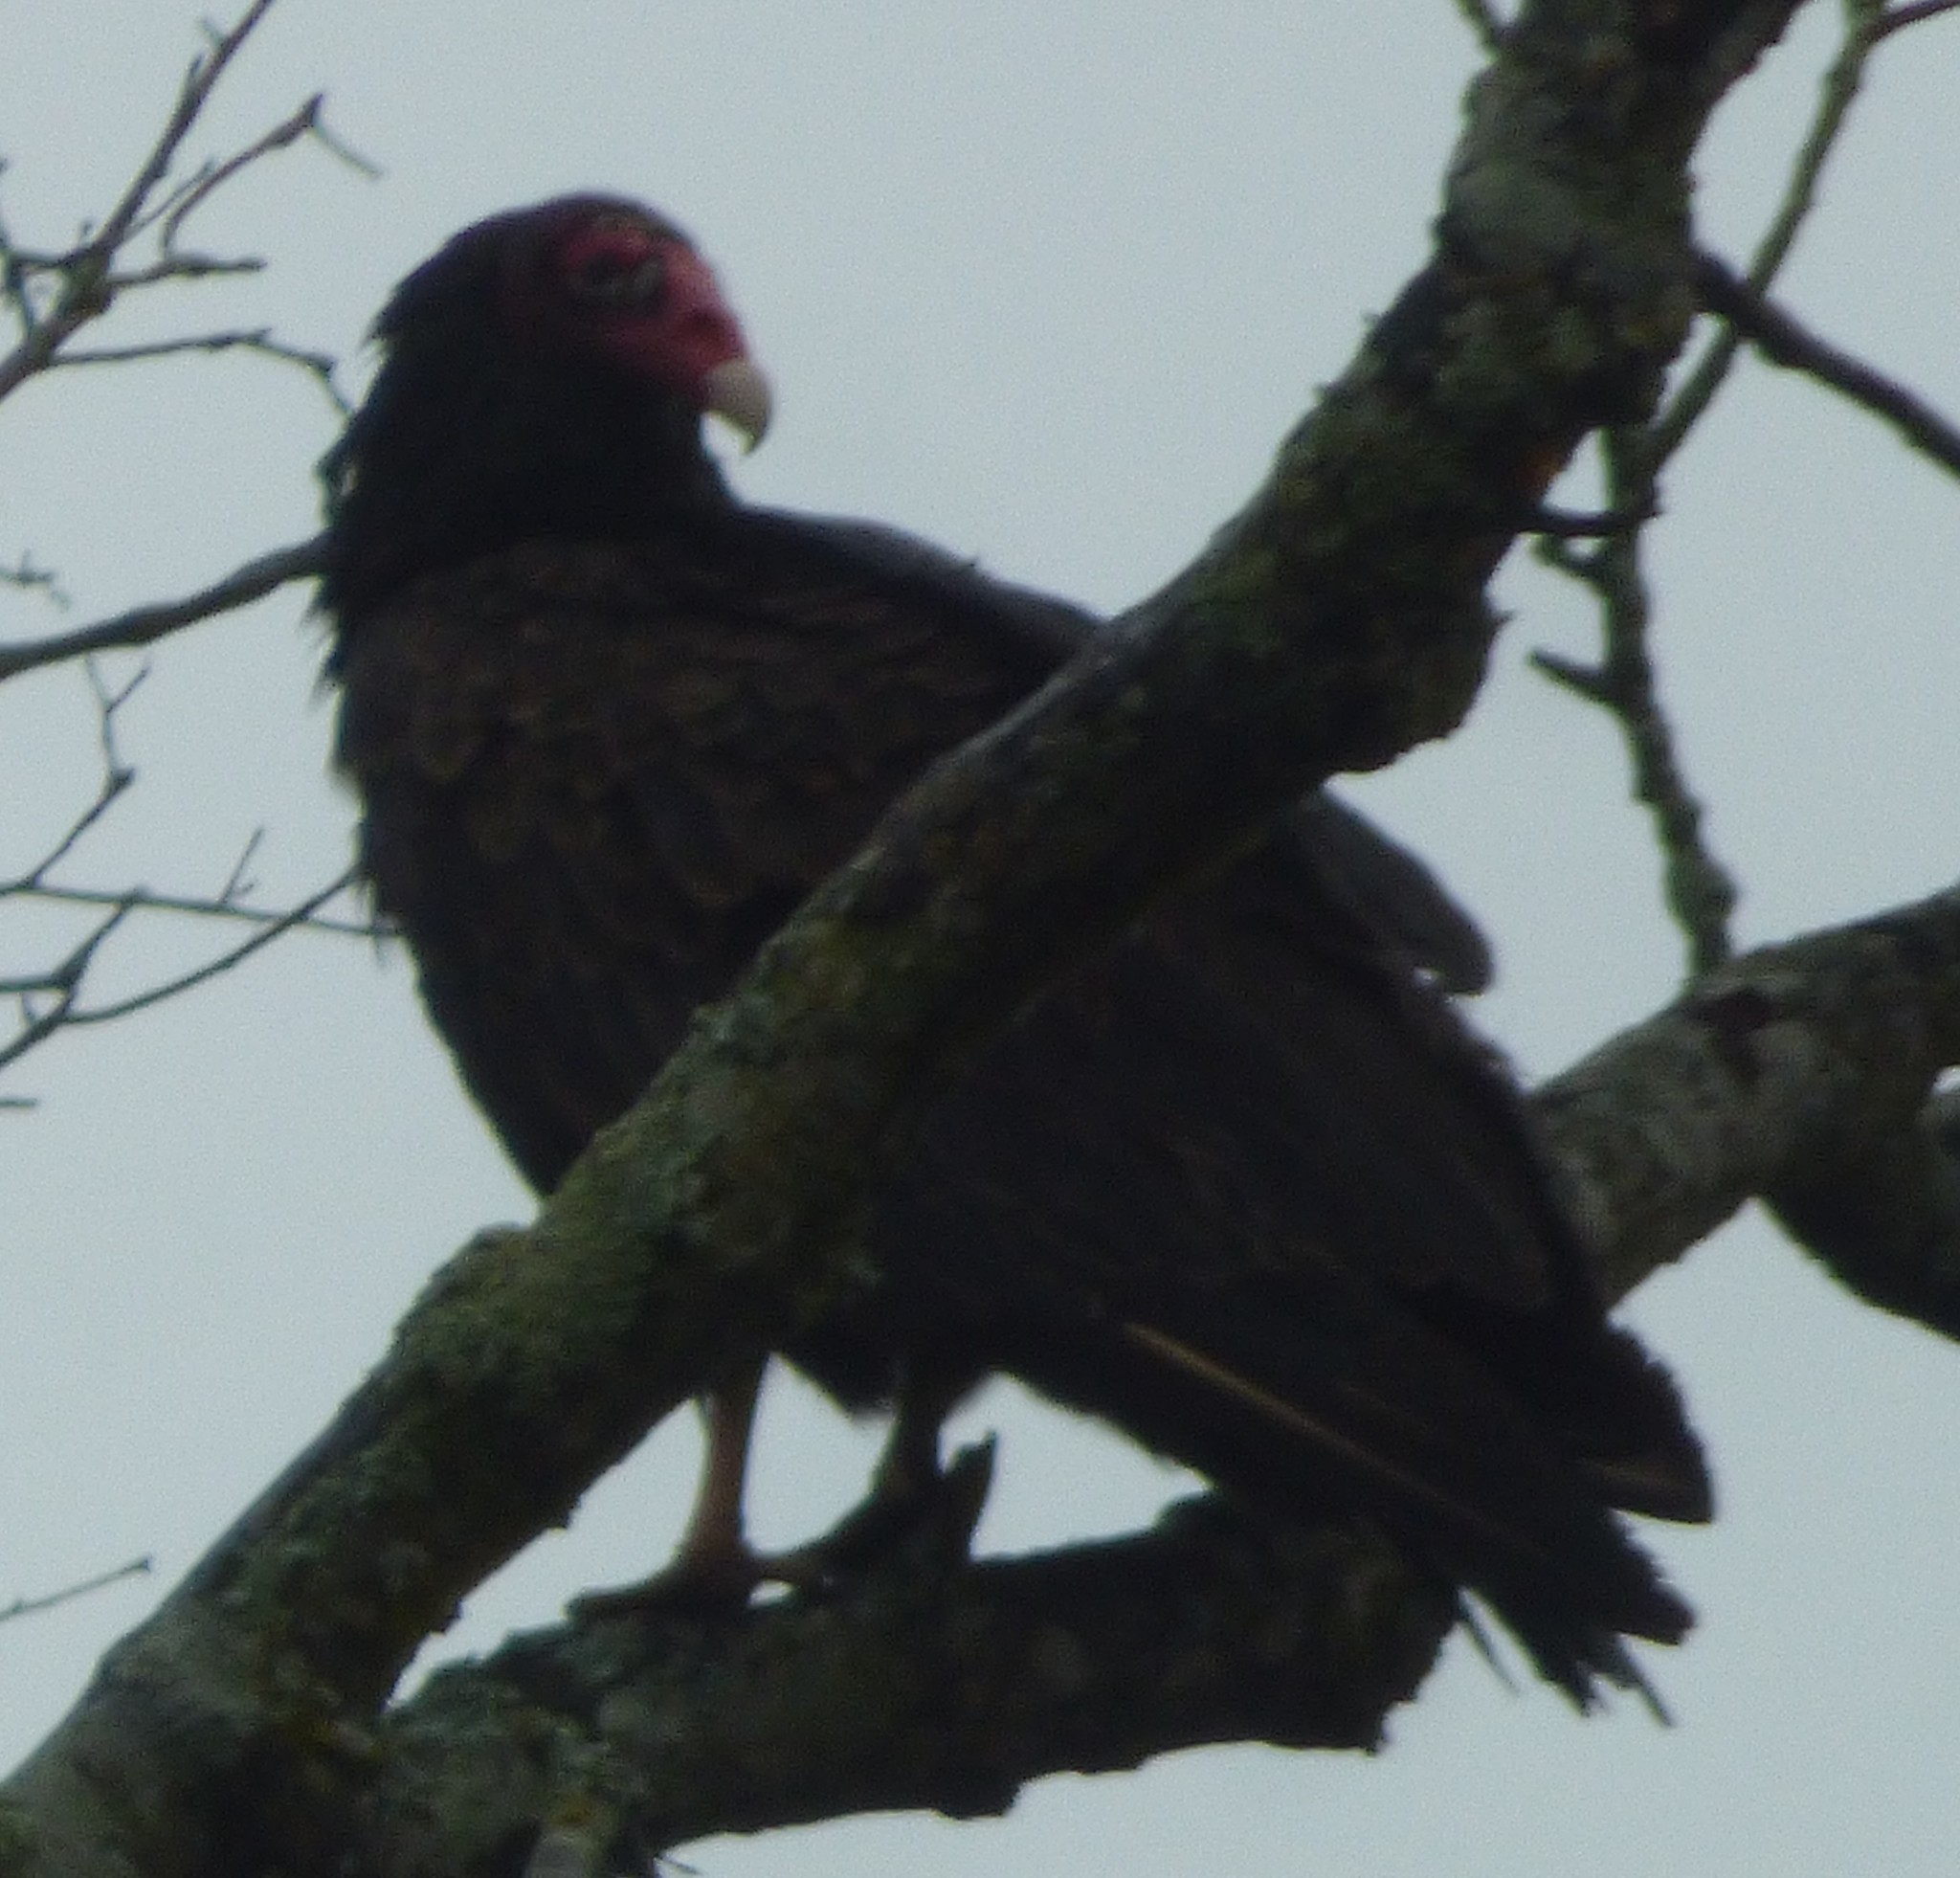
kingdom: Animalia
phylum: Chordata
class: Aves
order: Accipitriformes
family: Cathartidae
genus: Cathartes
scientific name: Cathartes aura
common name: Turkey vulture
